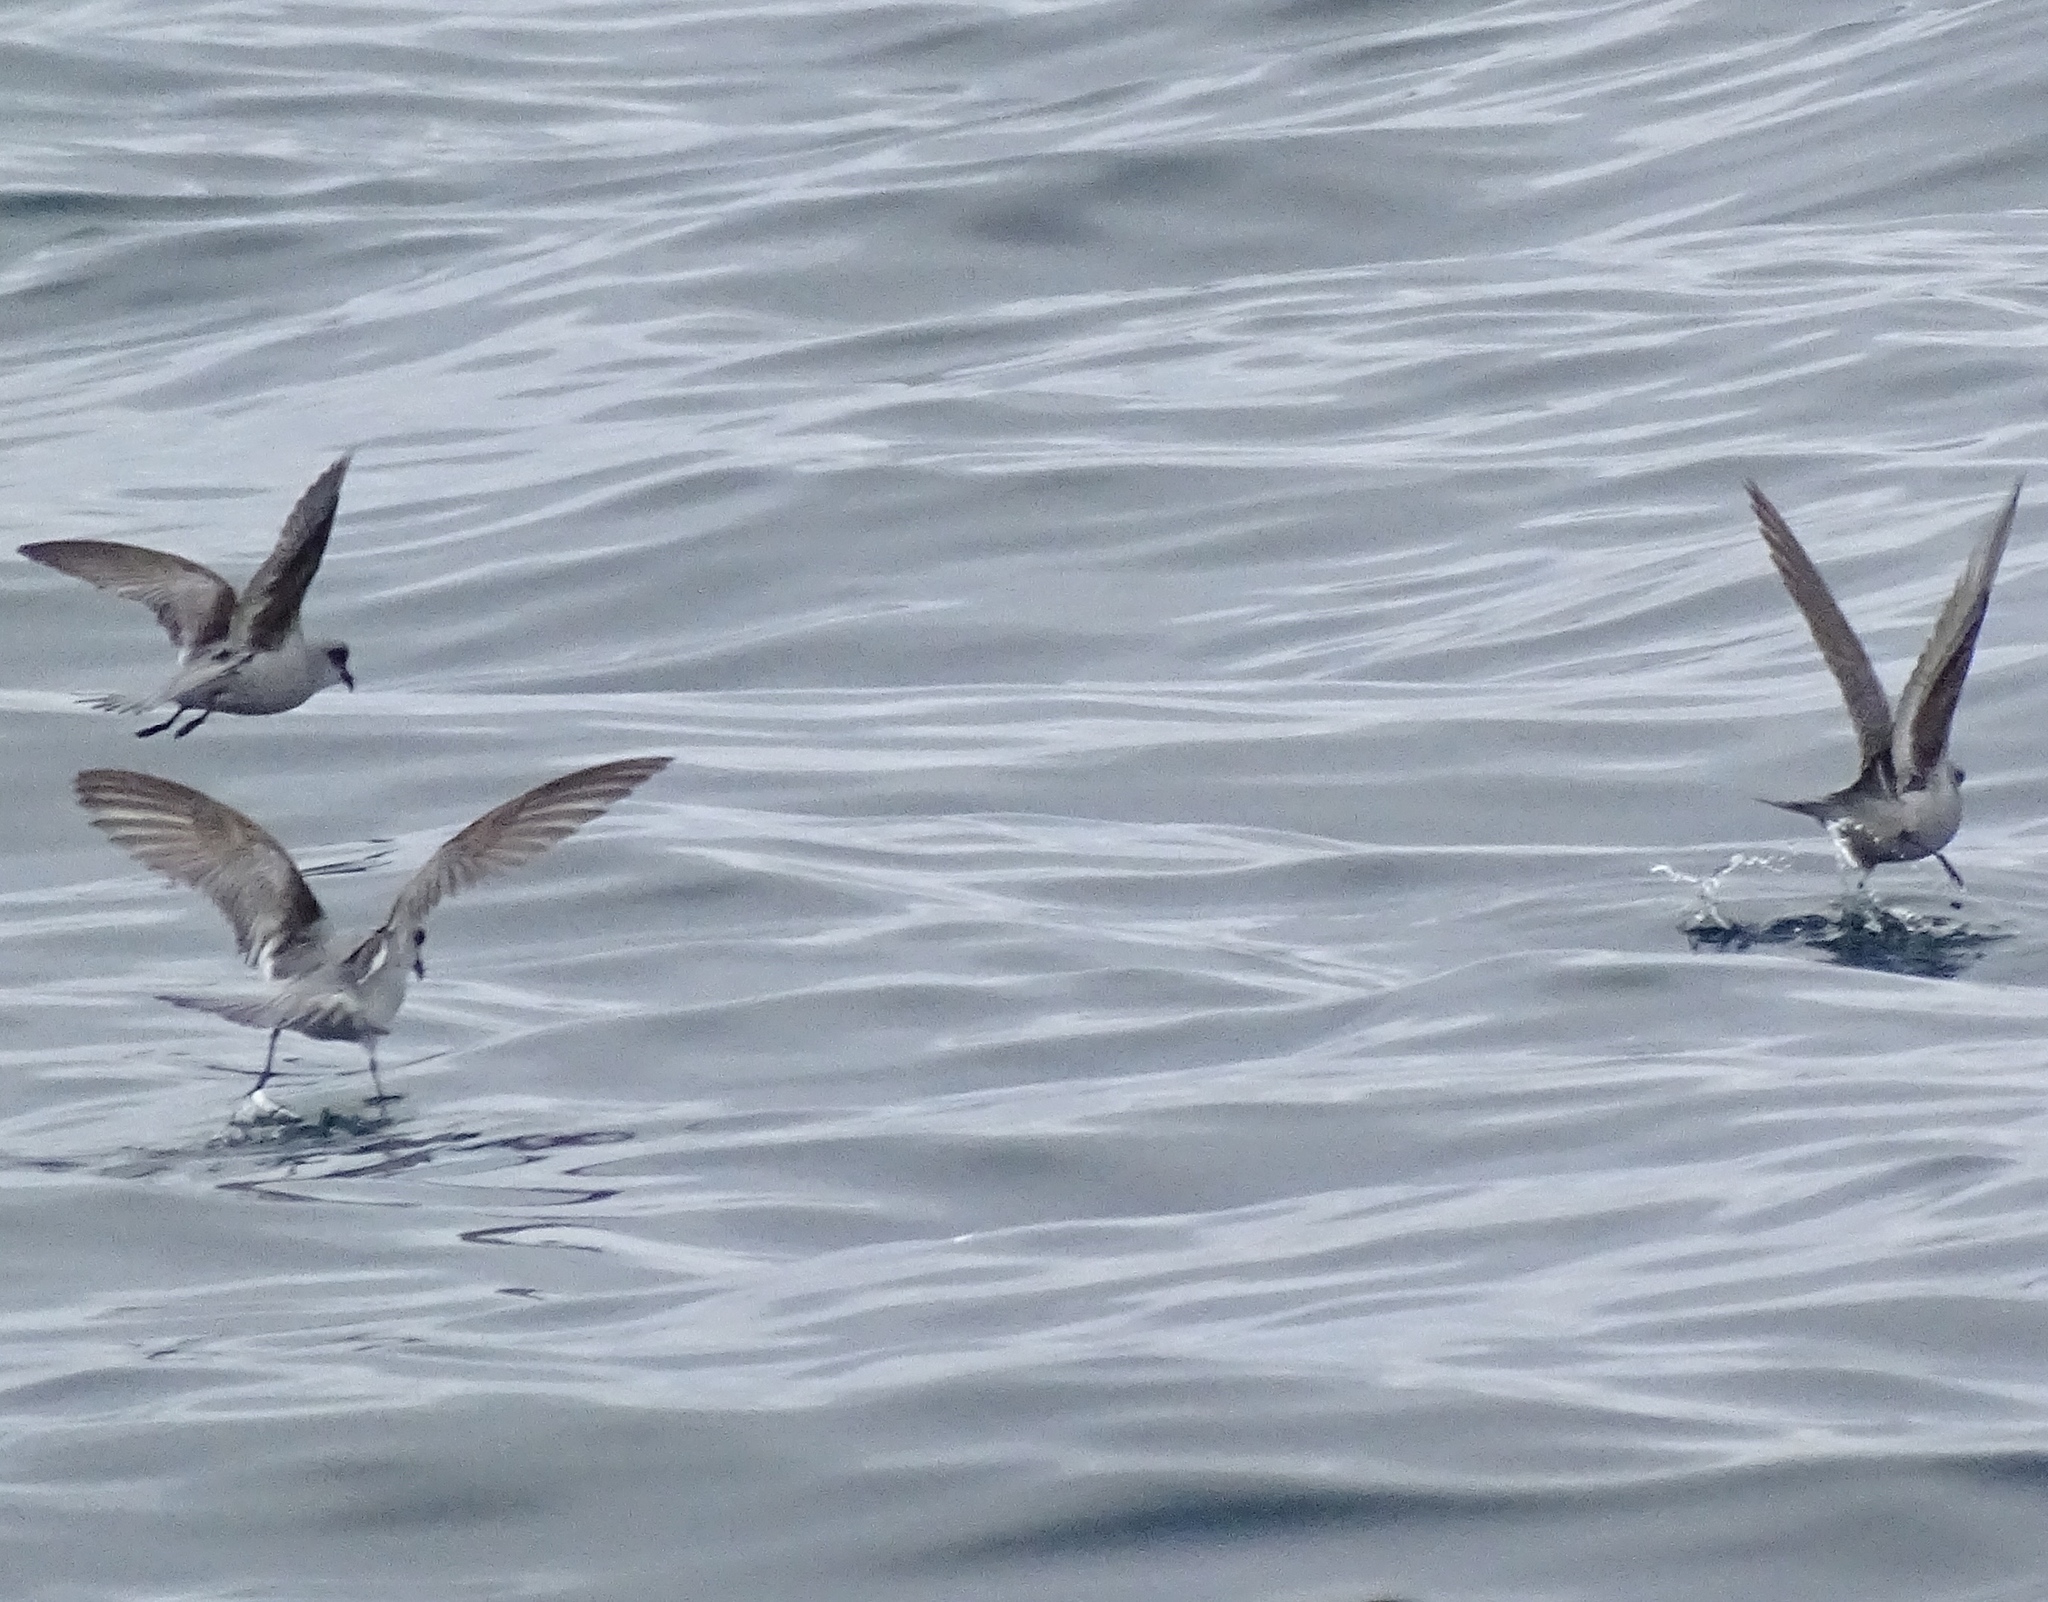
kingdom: Animalia
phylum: Chordata
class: Aves
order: Procellariiformes
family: Hydrobatidae
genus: Oceanodroma
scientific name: Oceanodroma furcata
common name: Fork-tailed storm-petrel
